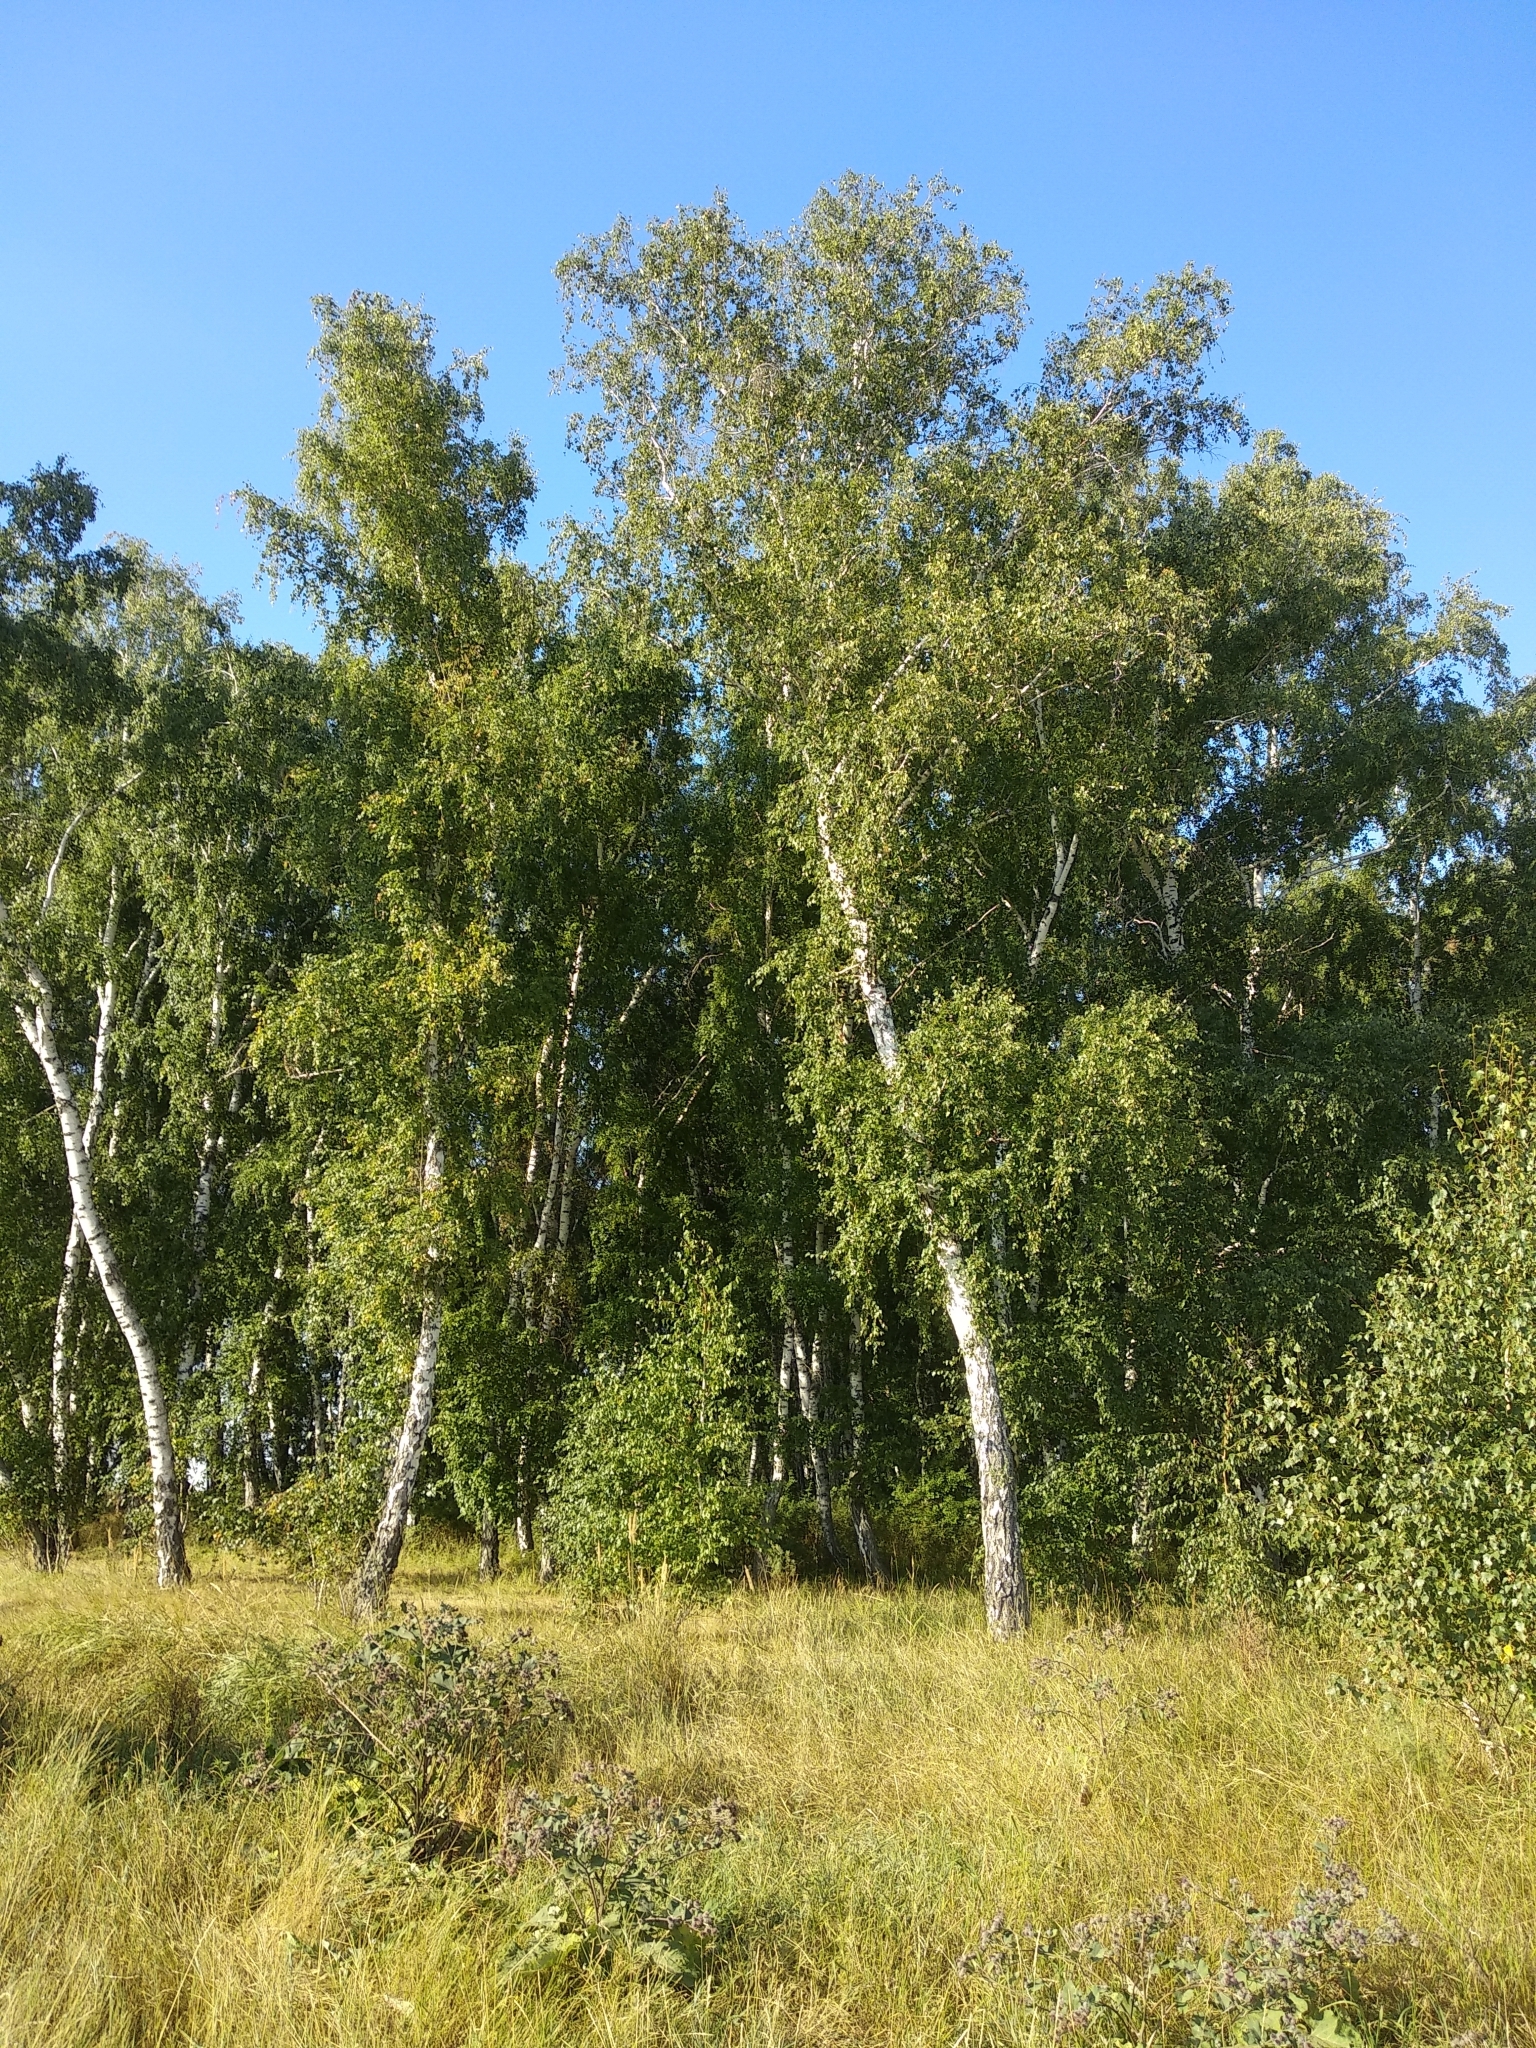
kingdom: Plantae
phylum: Tracheophyta
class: Magnoliopsida
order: Fagales
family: Betulaceae
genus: Betula
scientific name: Betula pendula
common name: Silver birch
